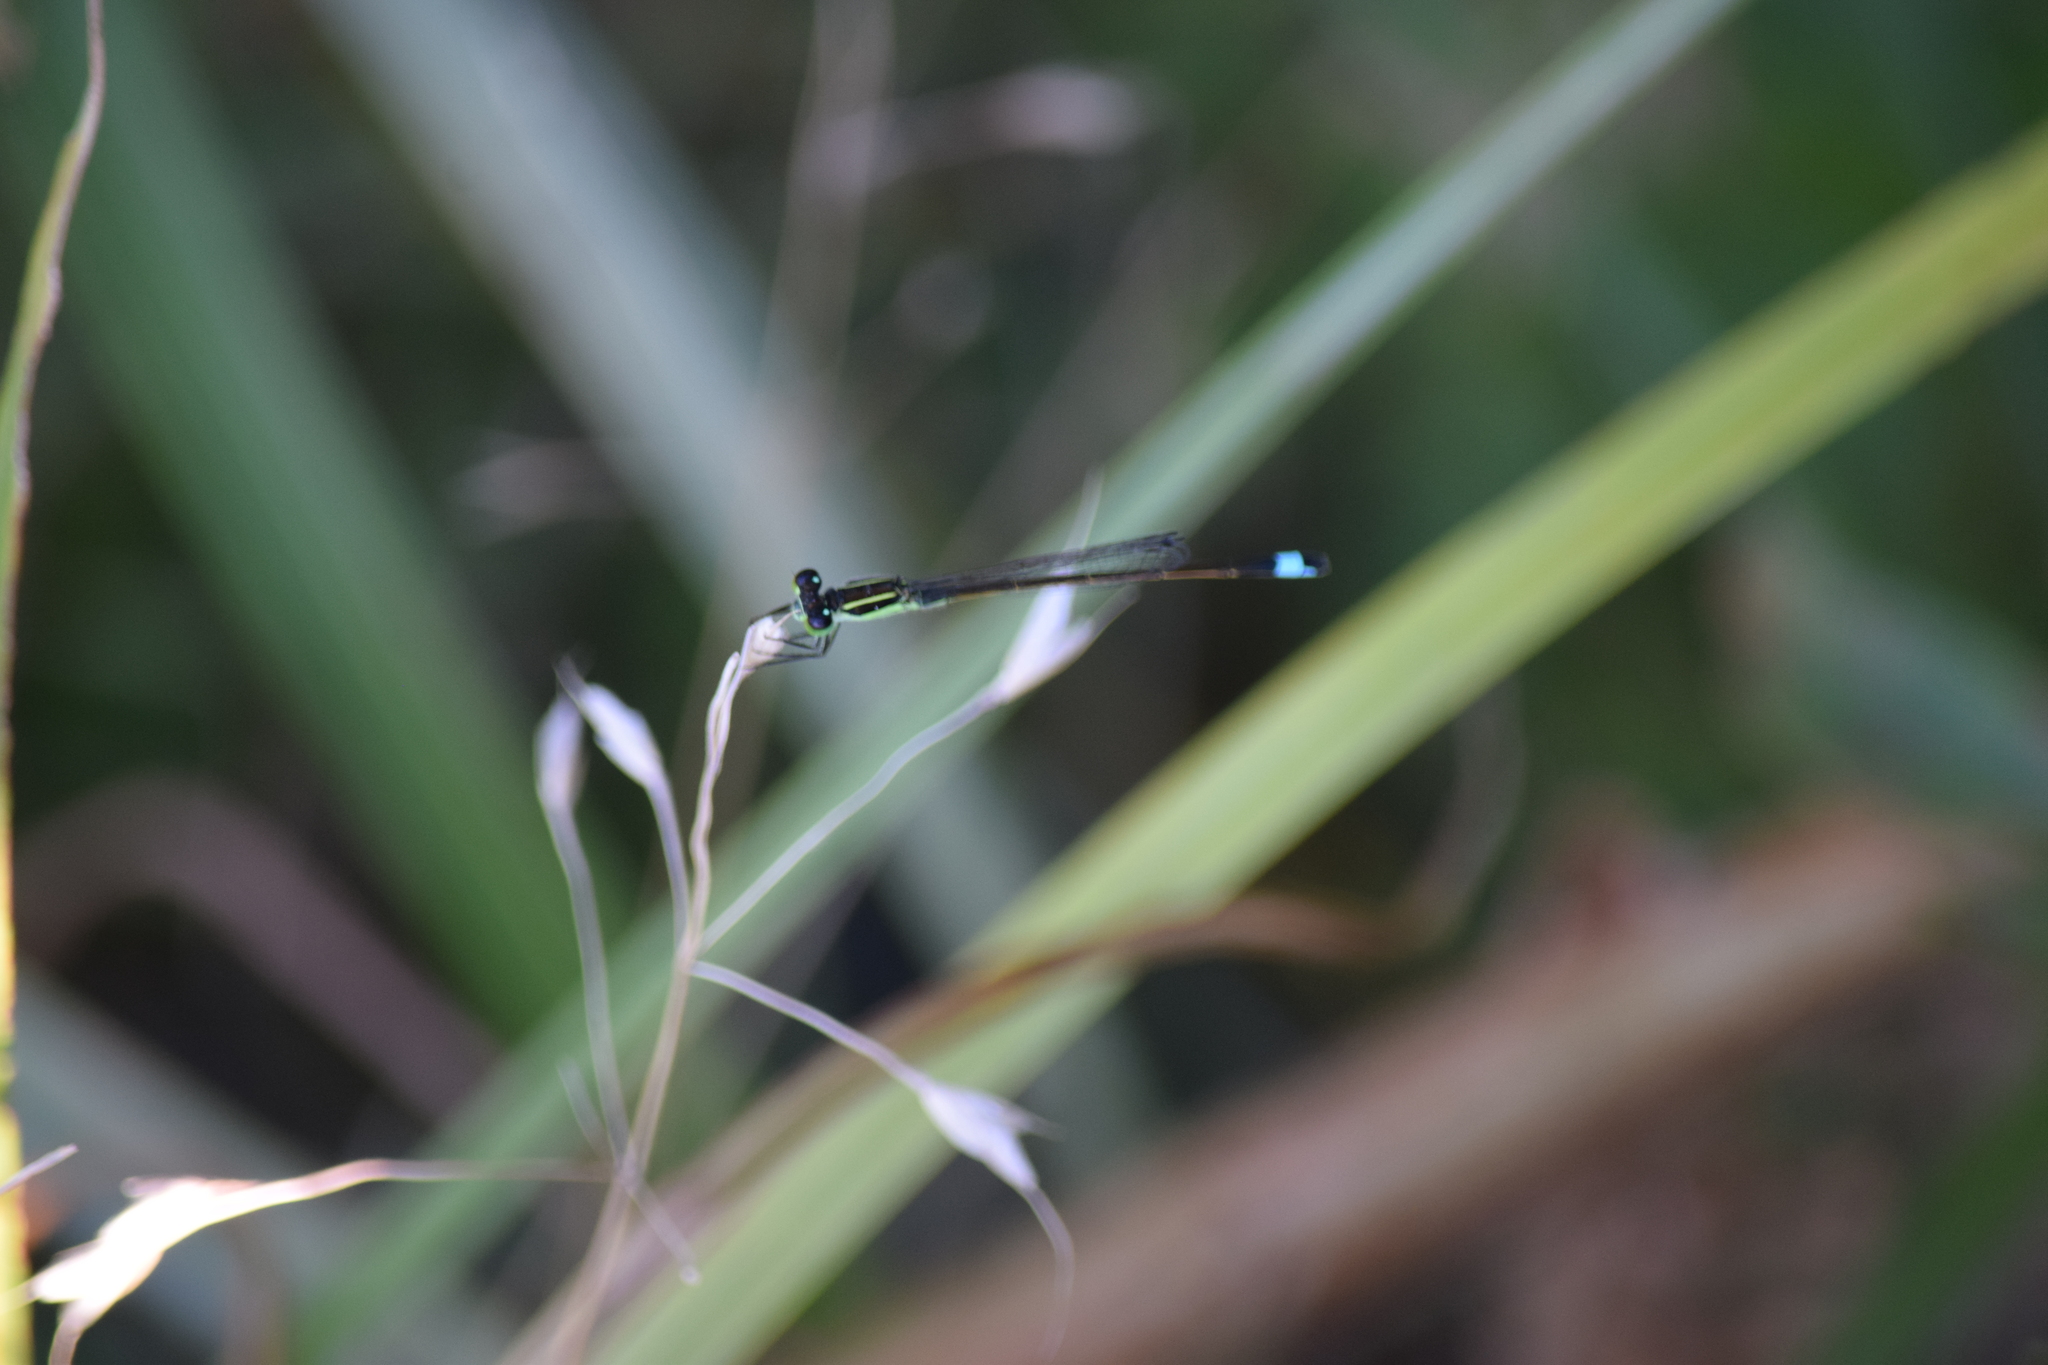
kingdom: Animalia
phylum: Arthropoda
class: Insecta
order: Odonata
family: Coenagrionidae
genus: Ischnura
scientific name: Ischnura ramburii
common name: Rambur's forktail
